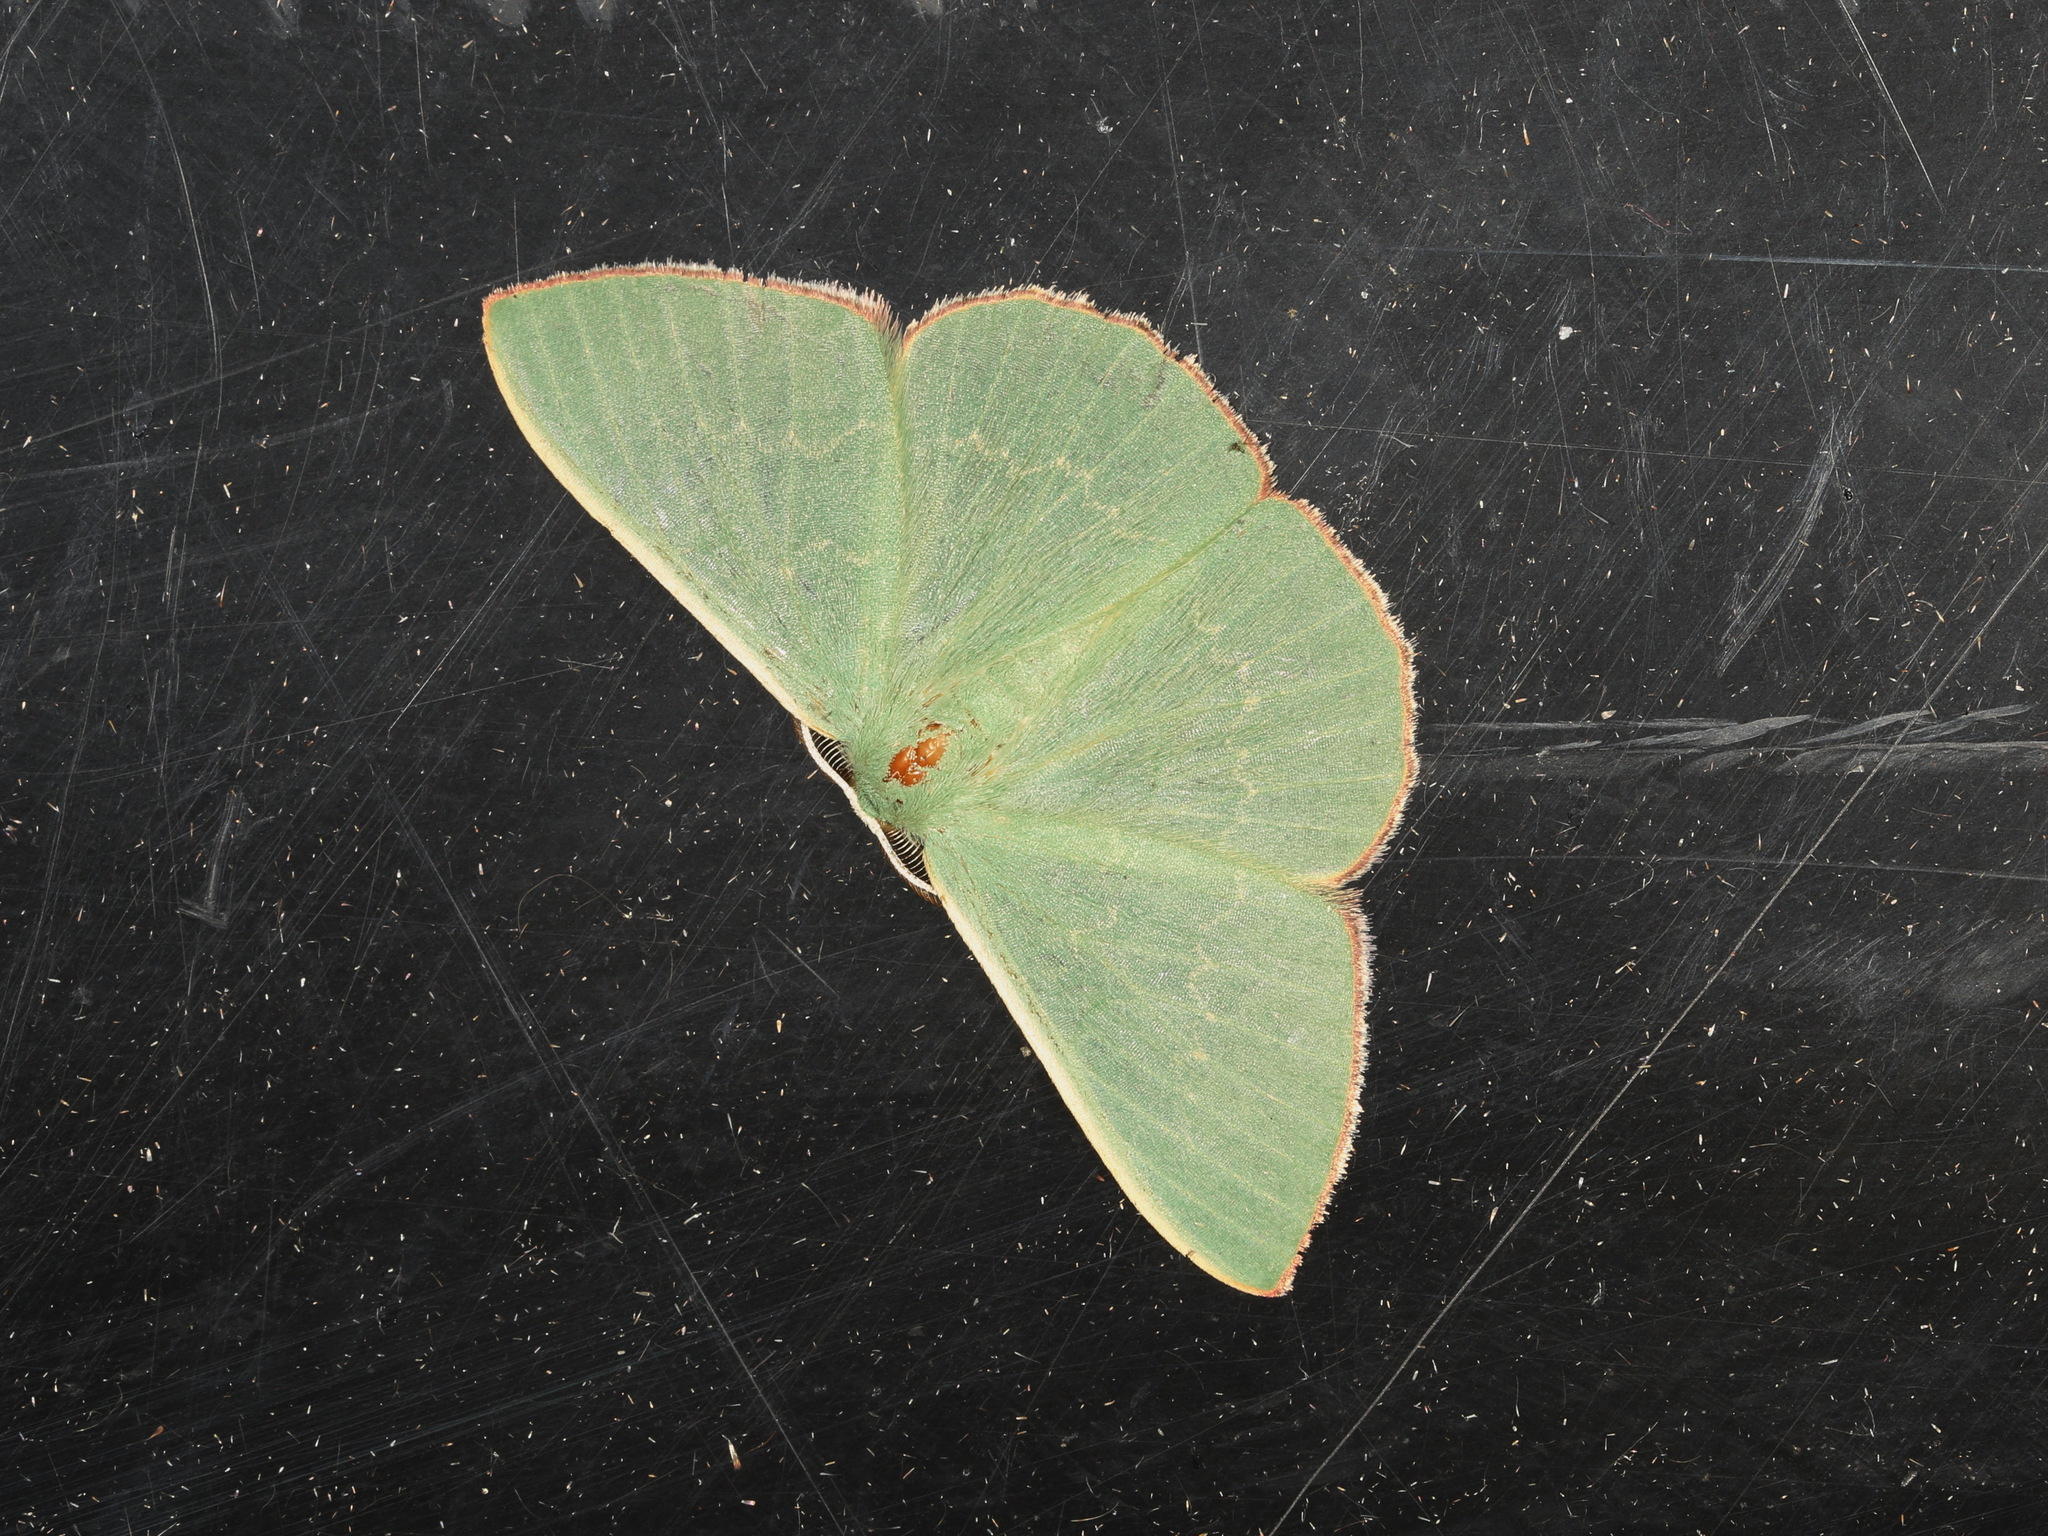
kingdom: Animalia
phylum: Arthropoda
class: Insecta
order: Lepidoptera
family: Geometridae
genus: Prasinocyma
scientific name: Prasinocyma semicrocea
